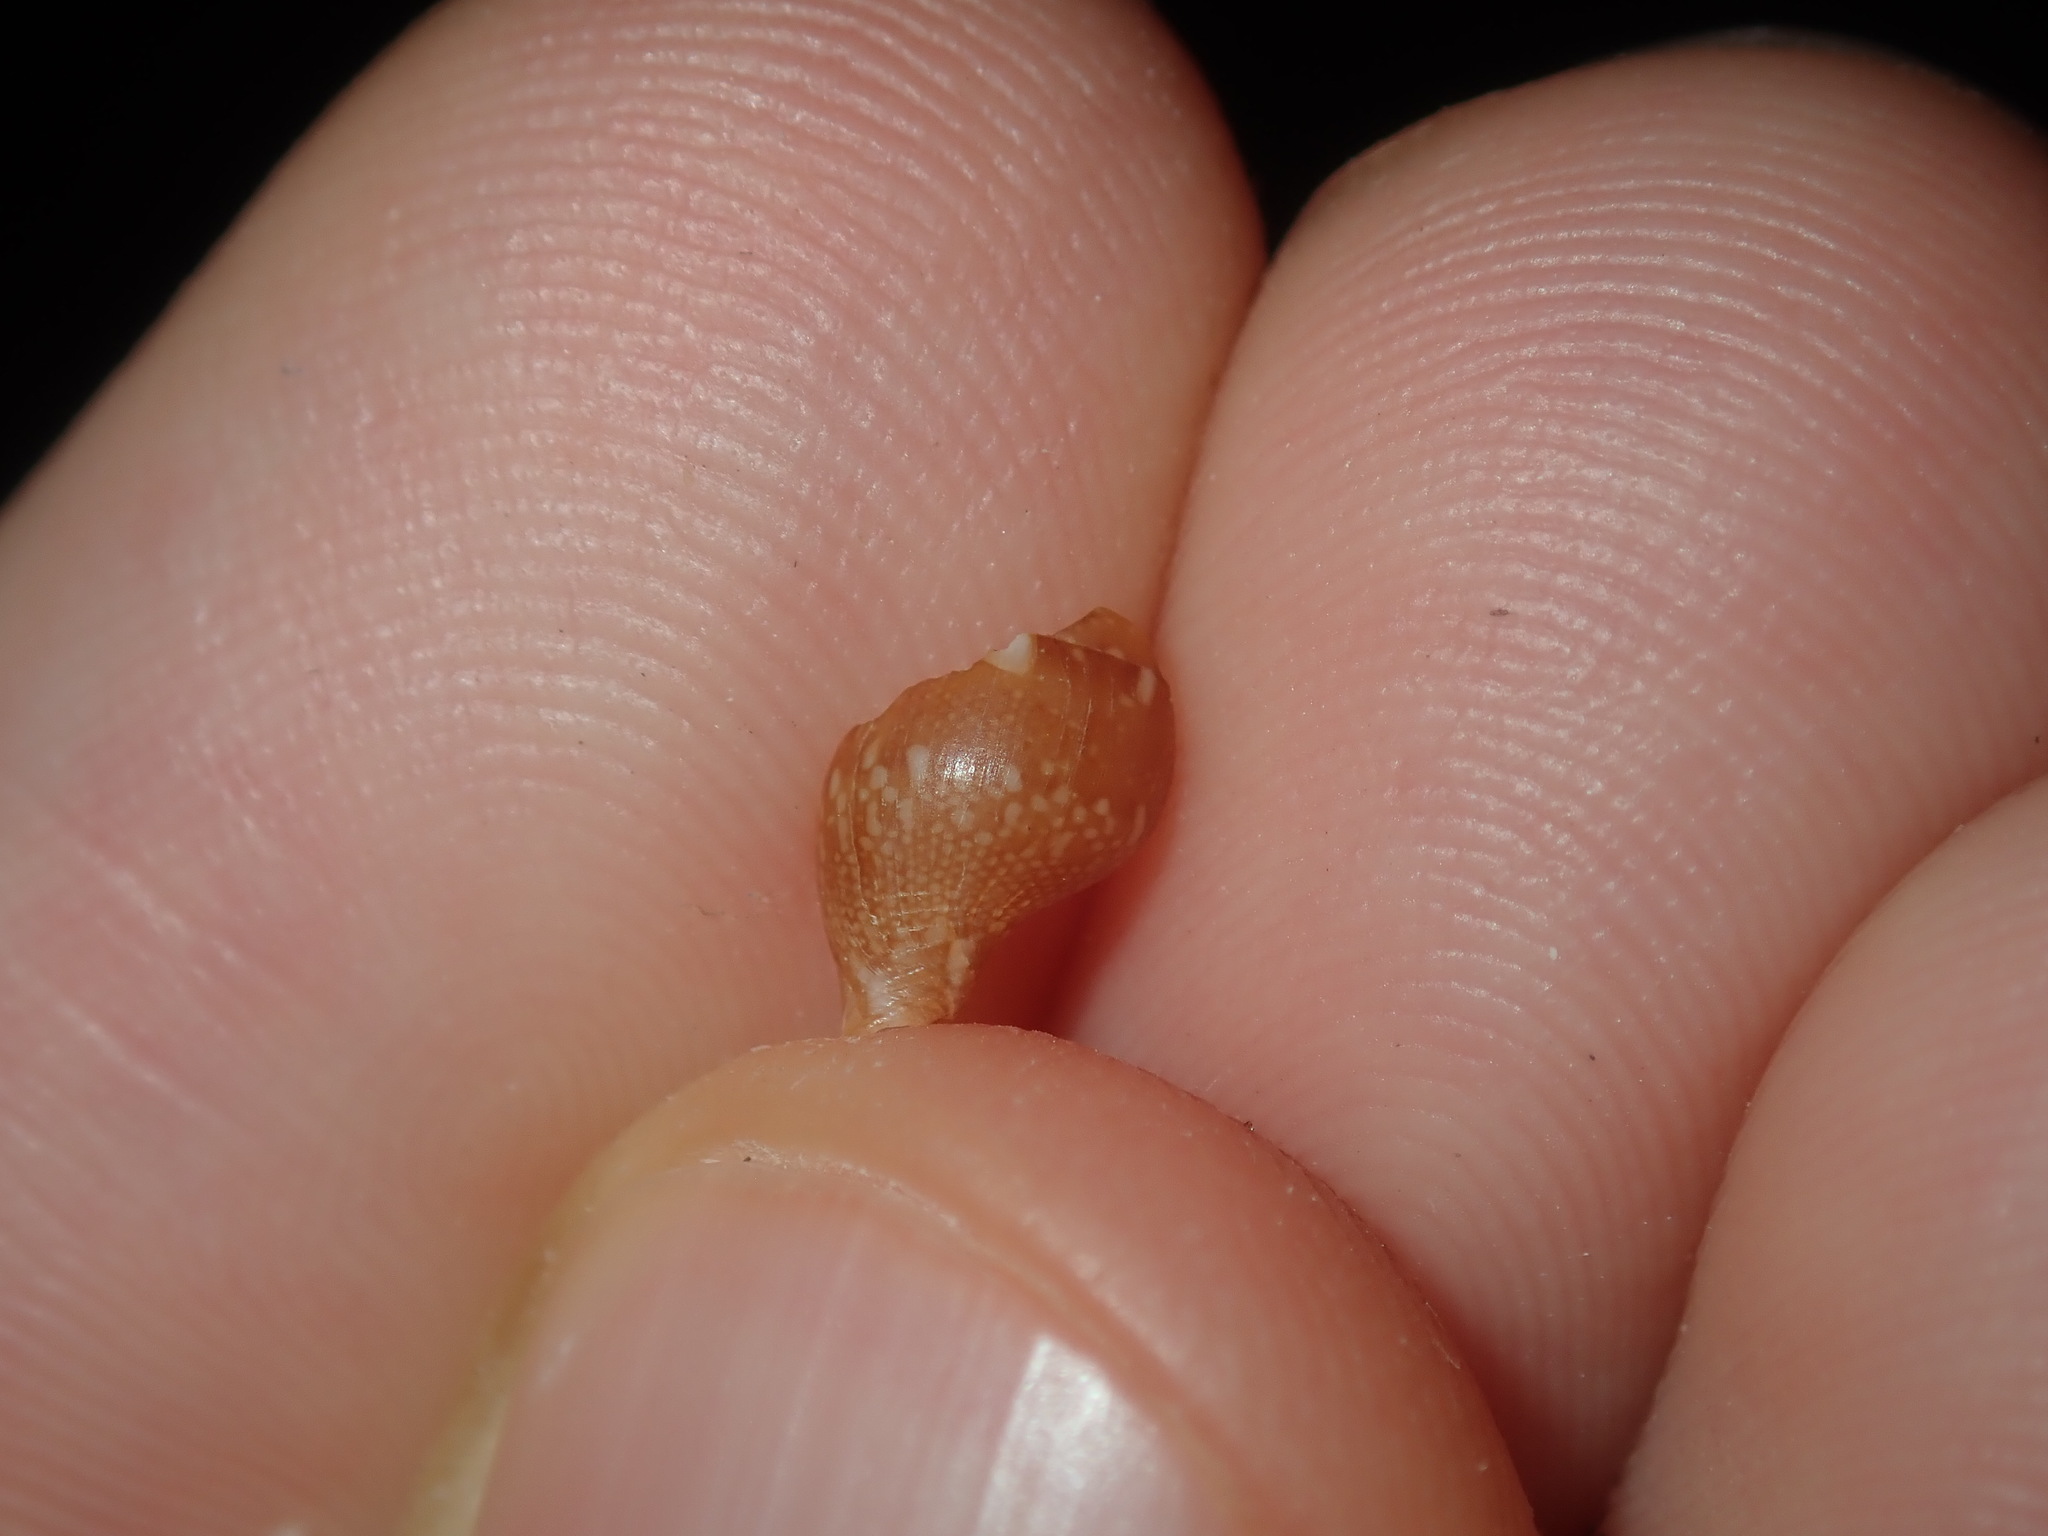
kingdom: Animalia
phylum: Mollusca
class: Gastropoda
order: Neogastropoda
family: Columbellidae
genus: Mitrella
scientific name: Mitrella bicincta
